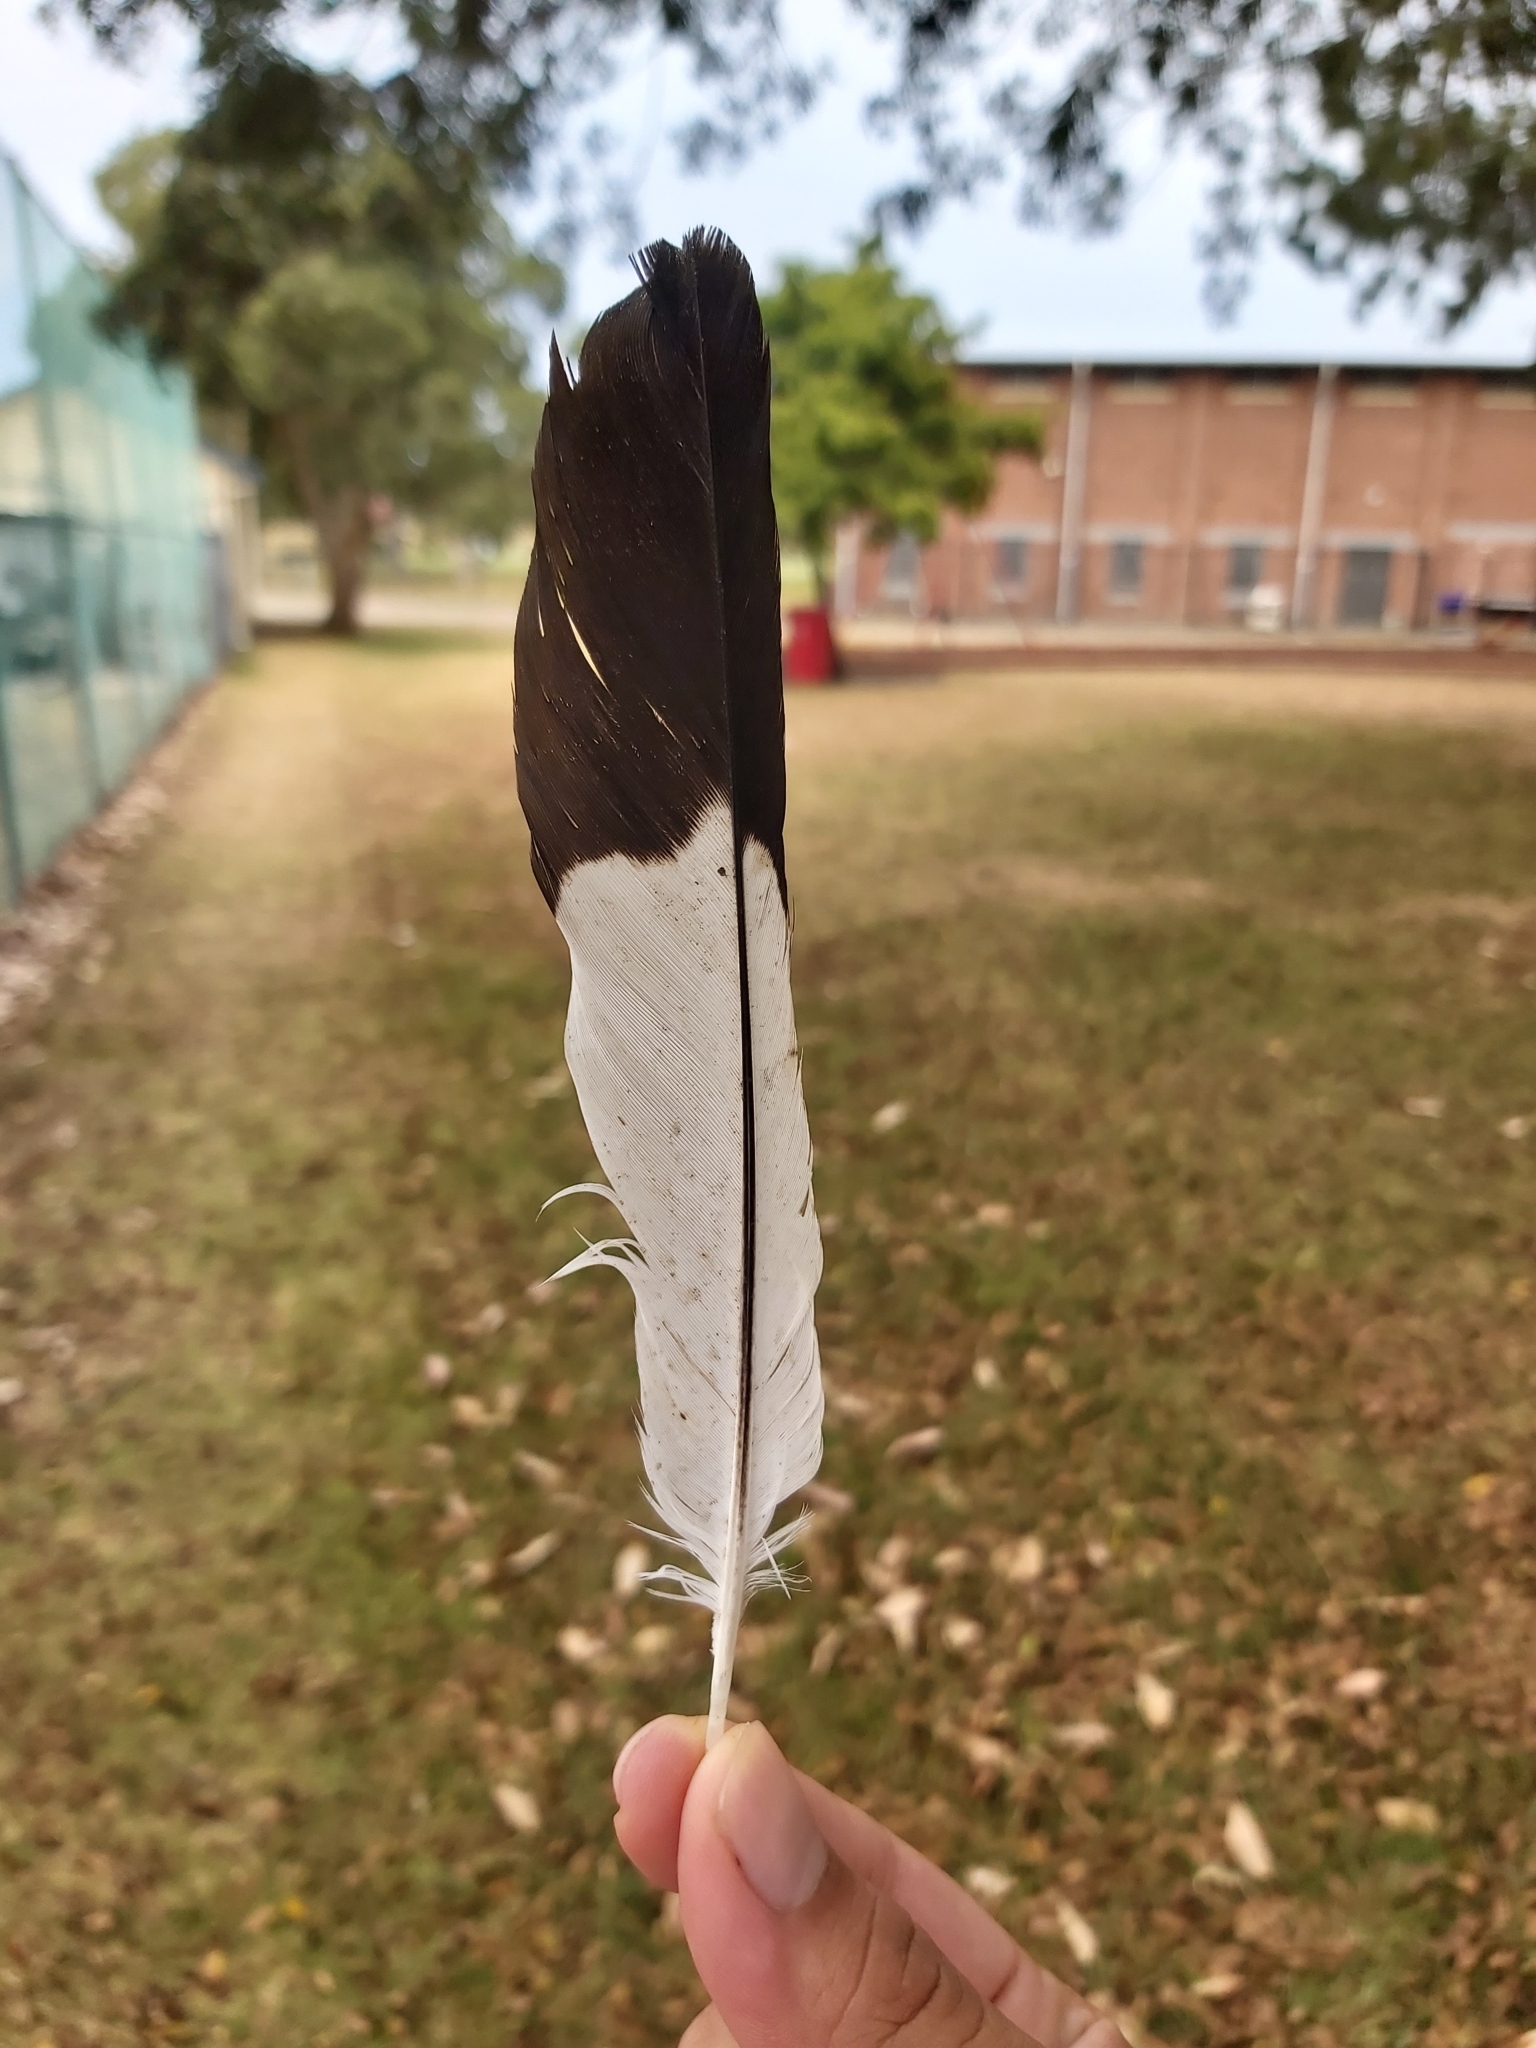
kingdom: Animalia
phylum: Chordata
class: Aves
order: Passeriformes
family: Cracticidae
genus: Gymnorhina
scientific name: Gymnorhina tibicen
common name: Australian magpie
